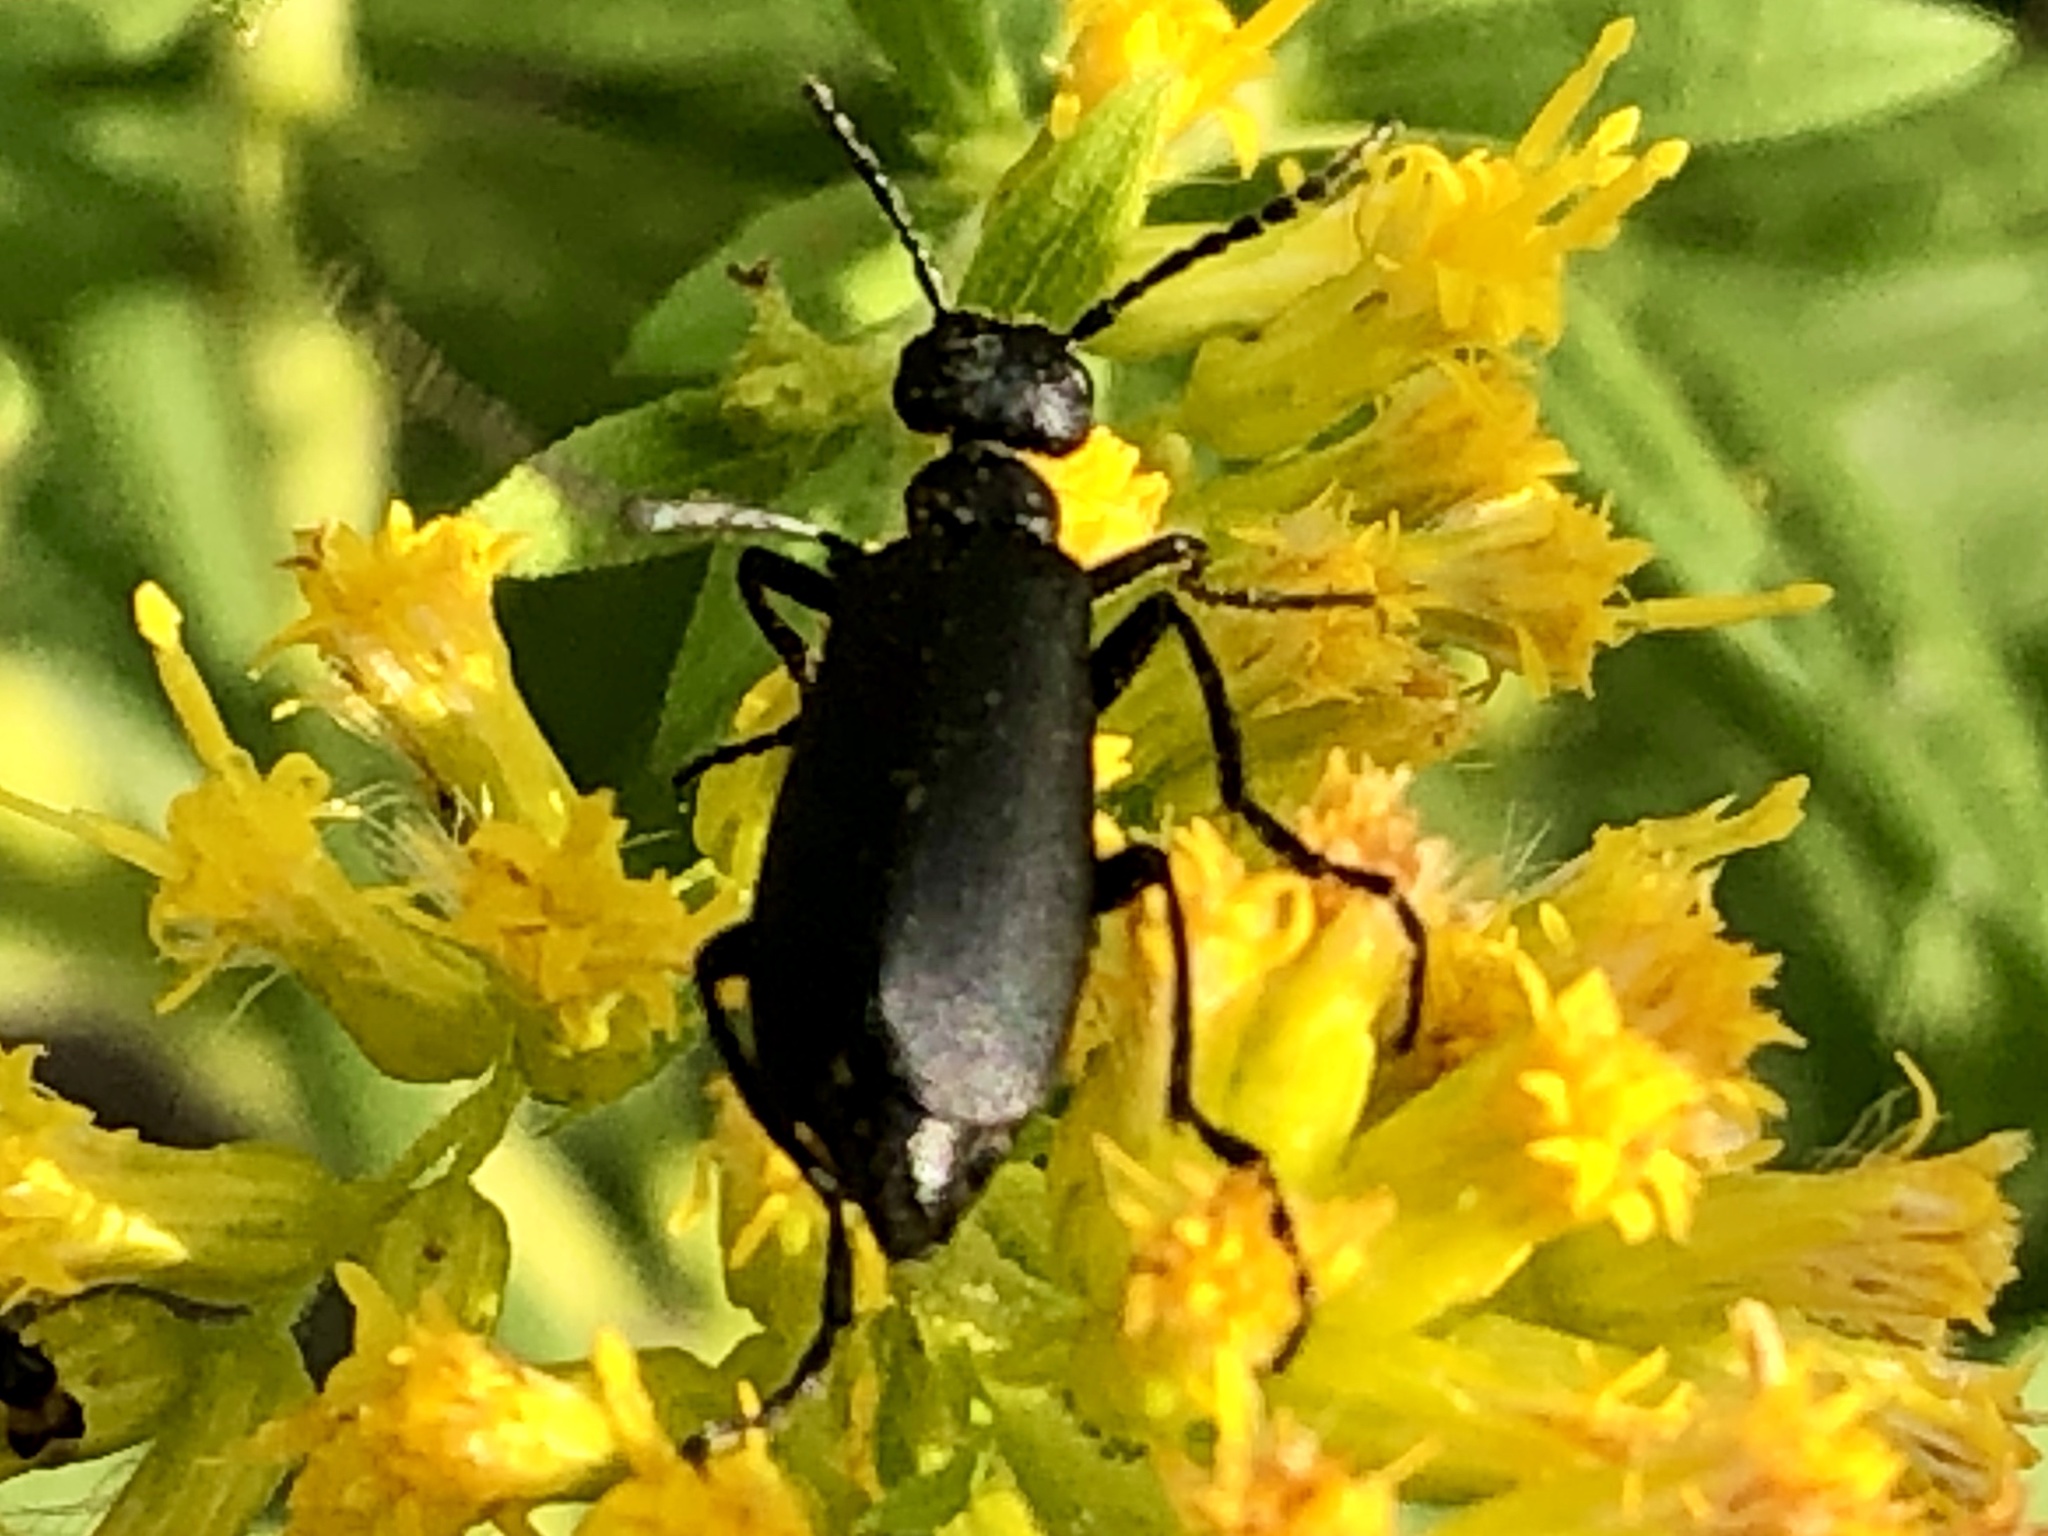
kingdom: Animalia
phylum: Arthropoda
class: Insecta
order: Coleoptera
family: Meloidae
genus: Epicauta
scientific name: Epicauta pensylvanica
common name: Black blister beetle
